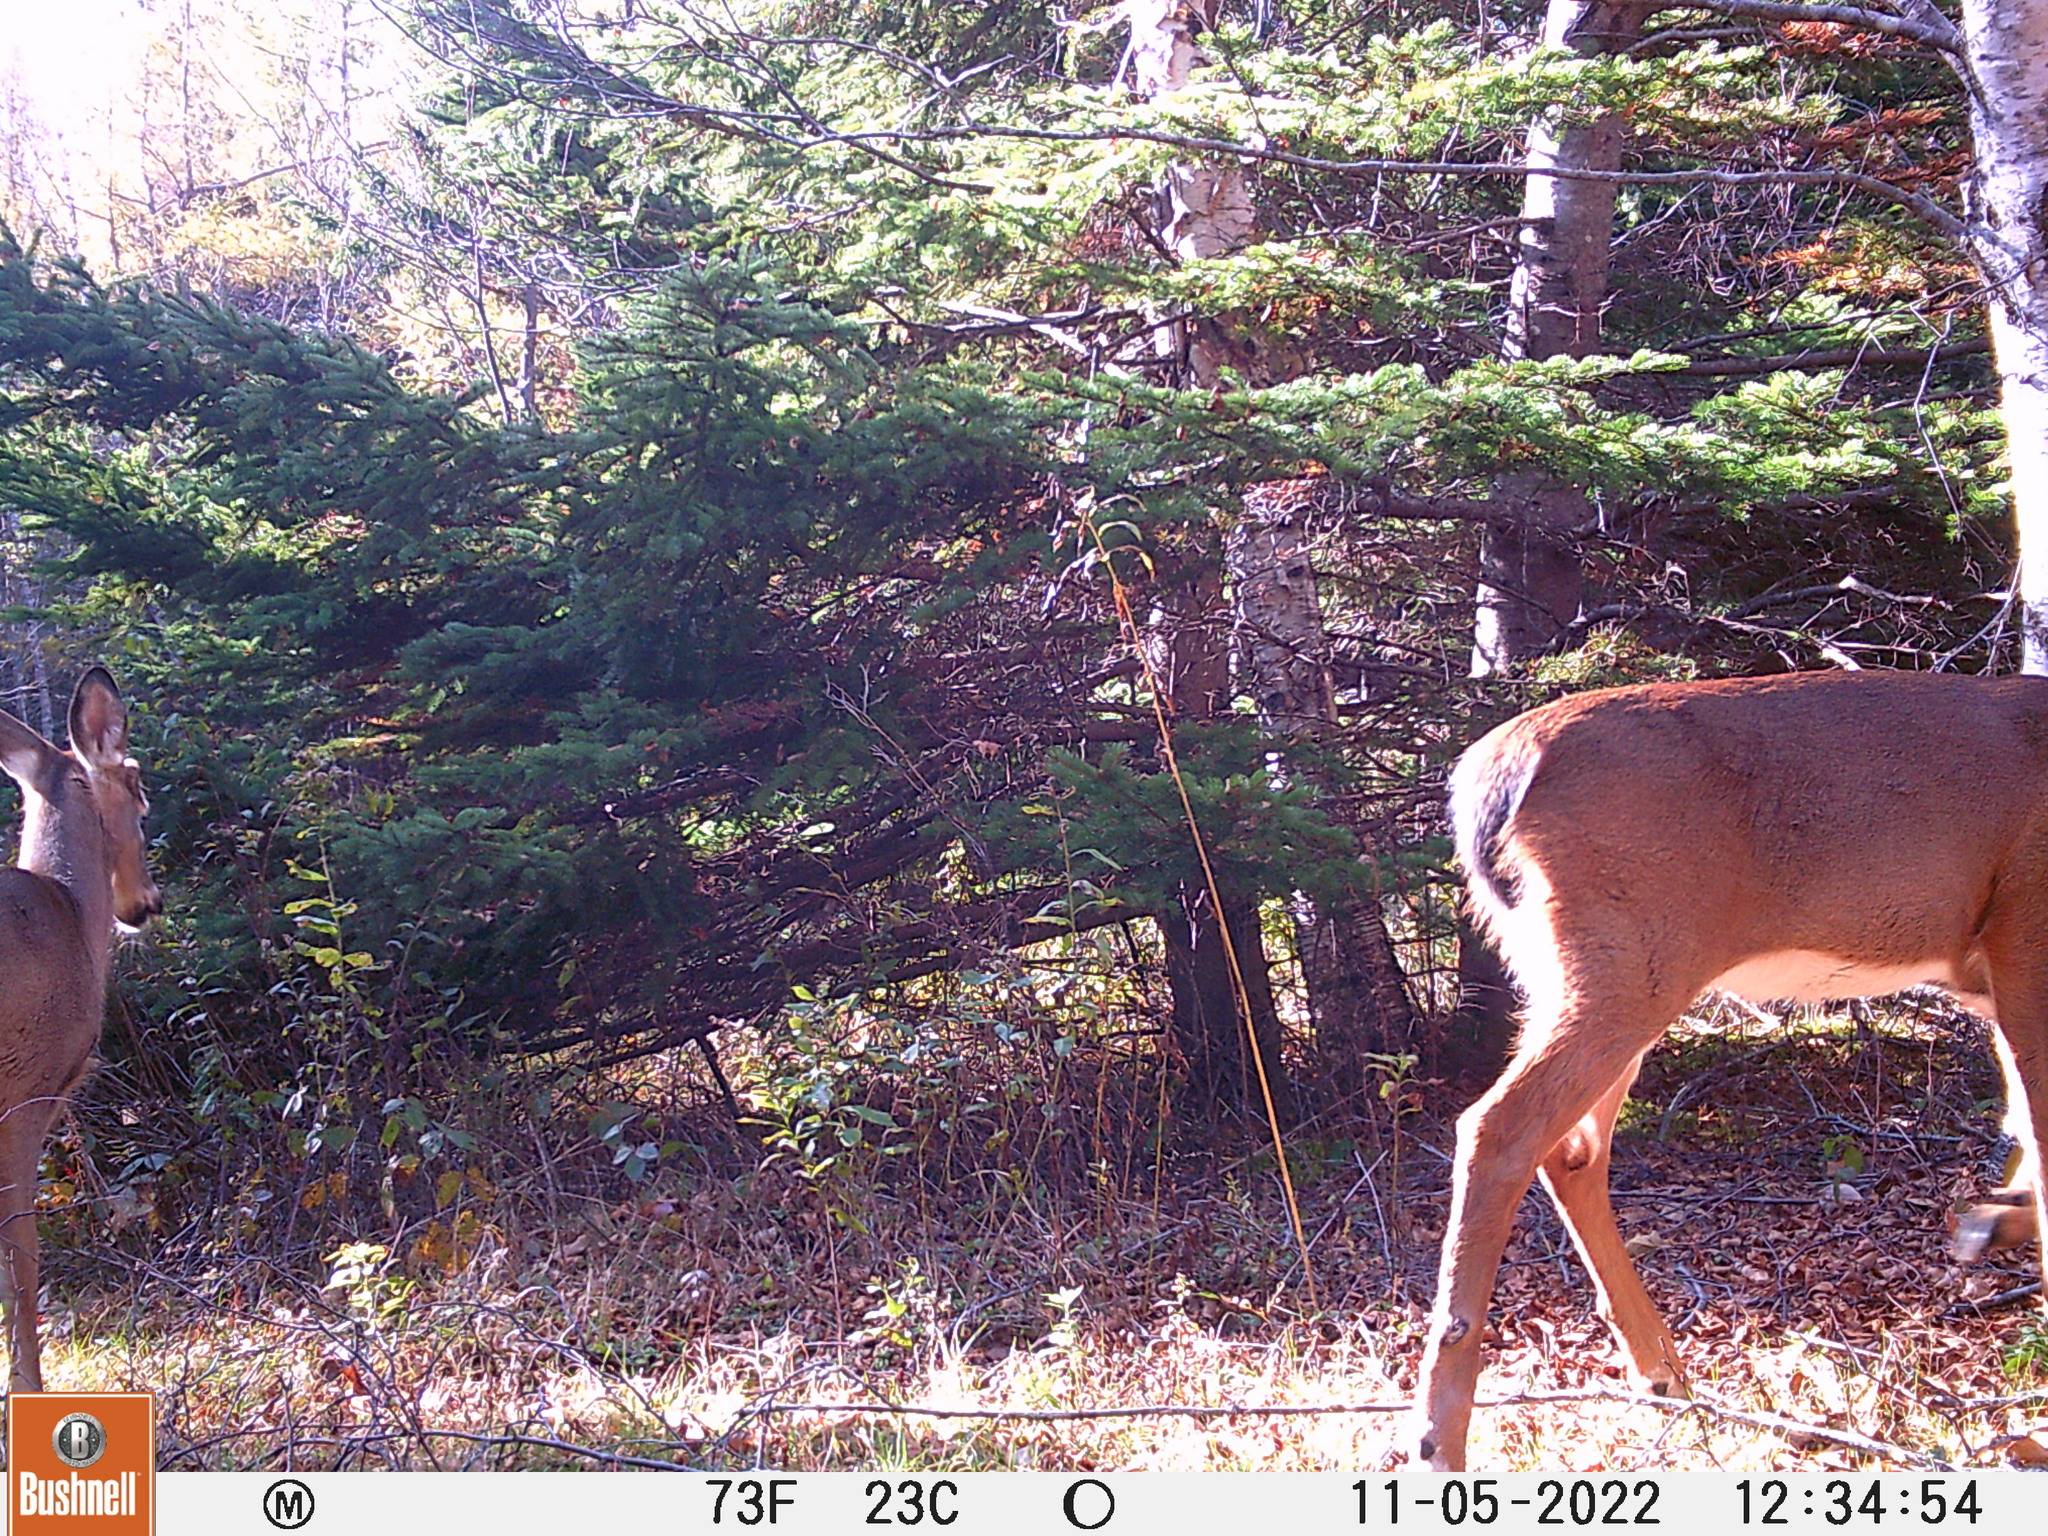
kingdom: Animalia
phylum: Chordata
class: Mammalia
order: Artiodactyla
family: Cervidae
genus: Odocoileus
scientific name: Odocoileus virginianus
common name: White-tailed deer
